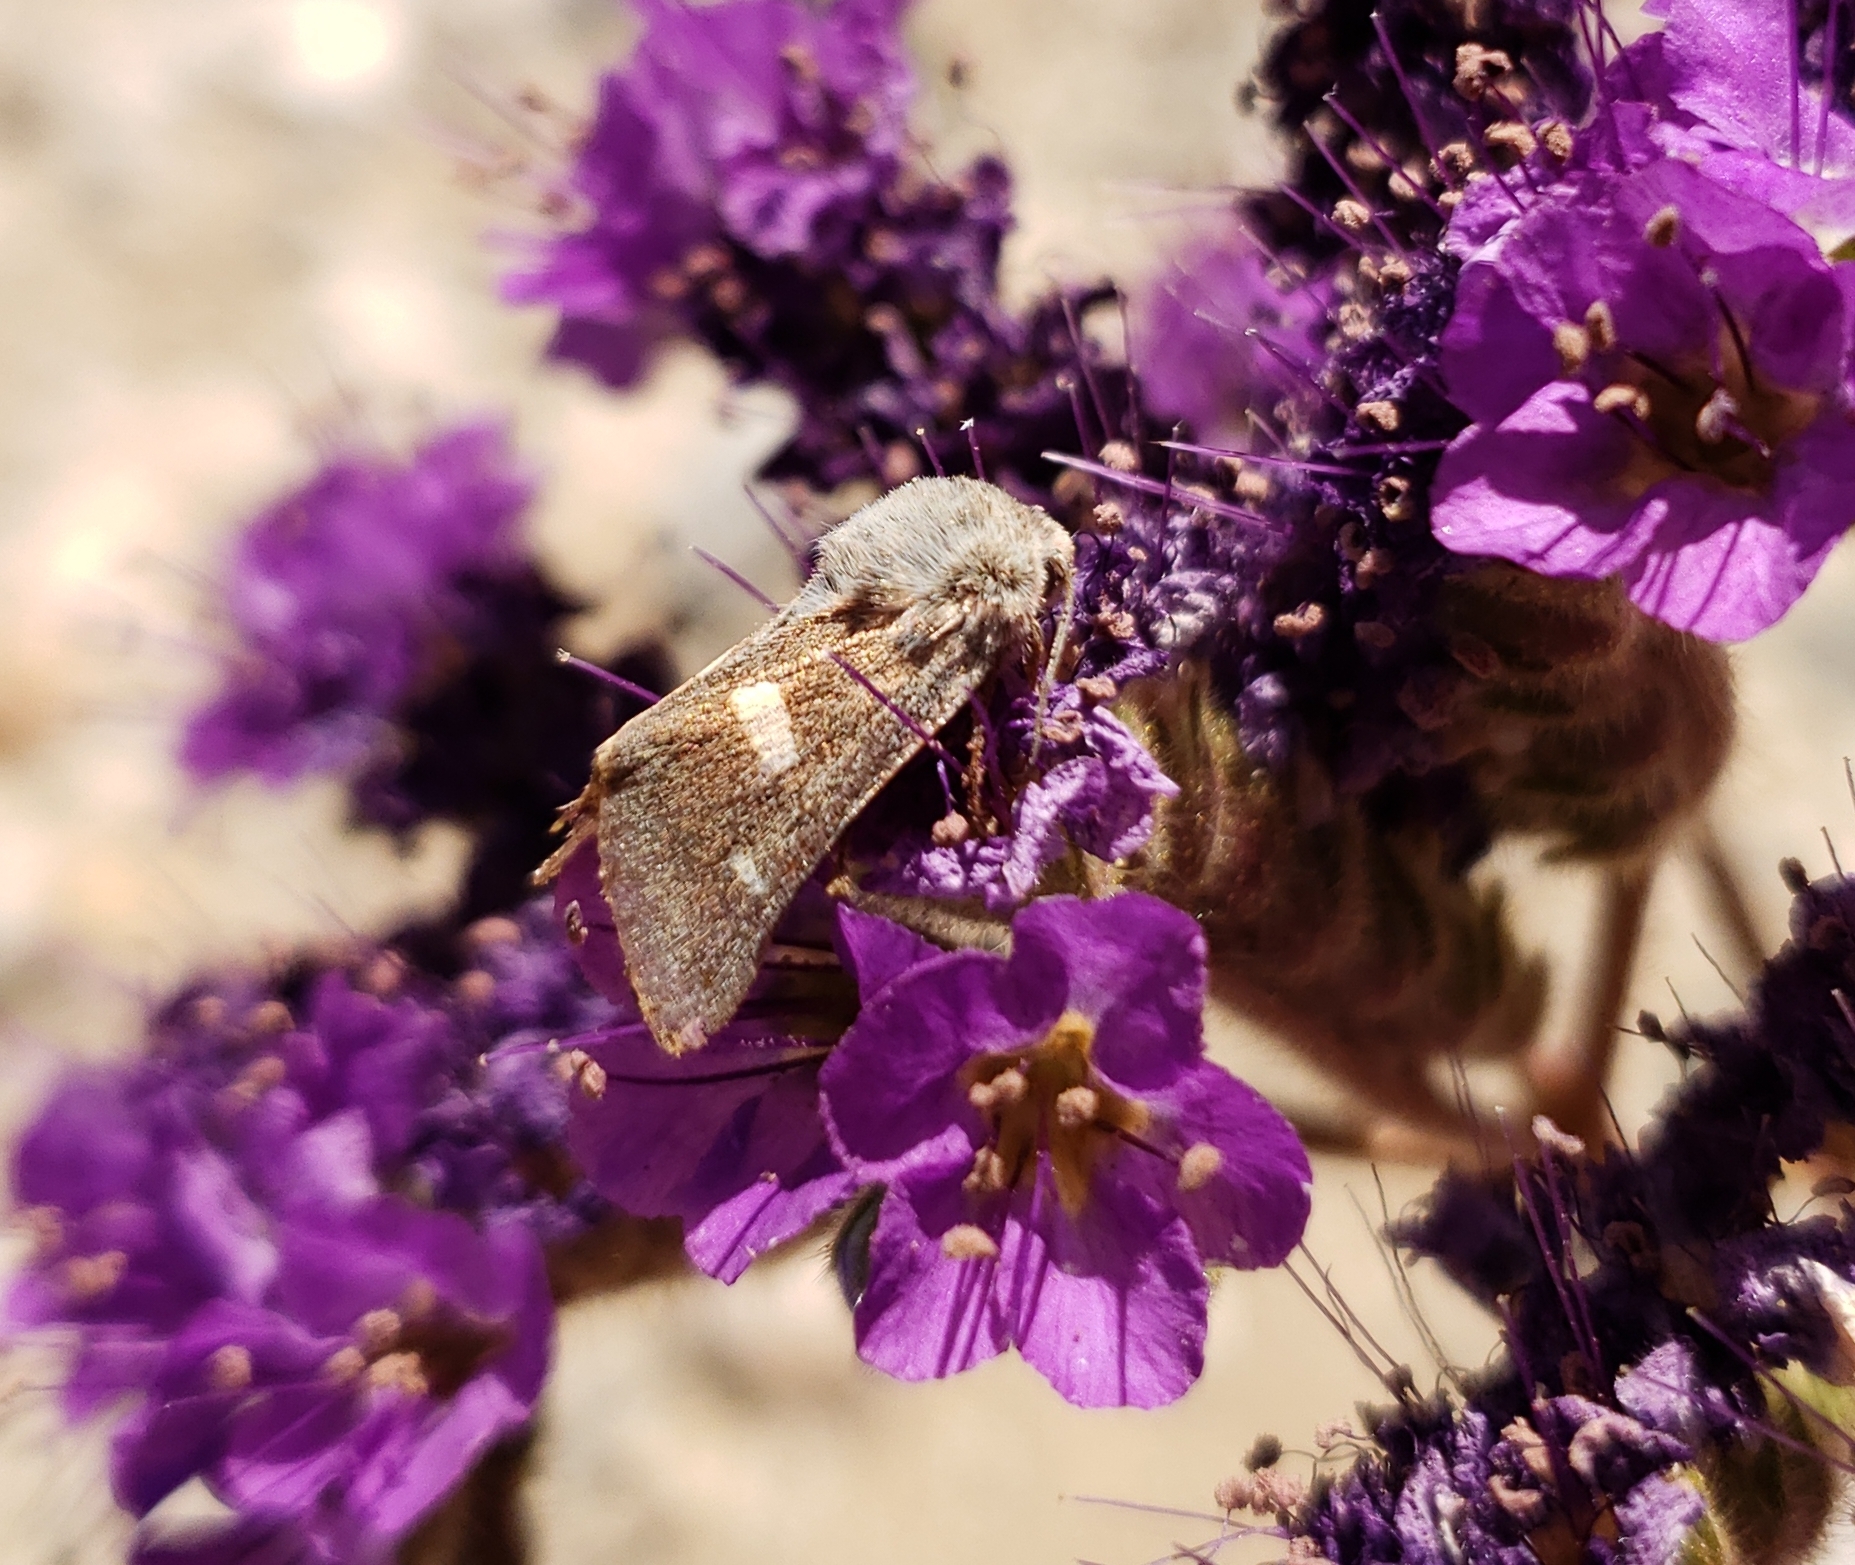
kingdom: Animalia
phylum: Arthropoda
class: Insecta
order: Lepidoptera
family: Noctuidae
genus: Baptarma
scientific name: Baptarma felicita
